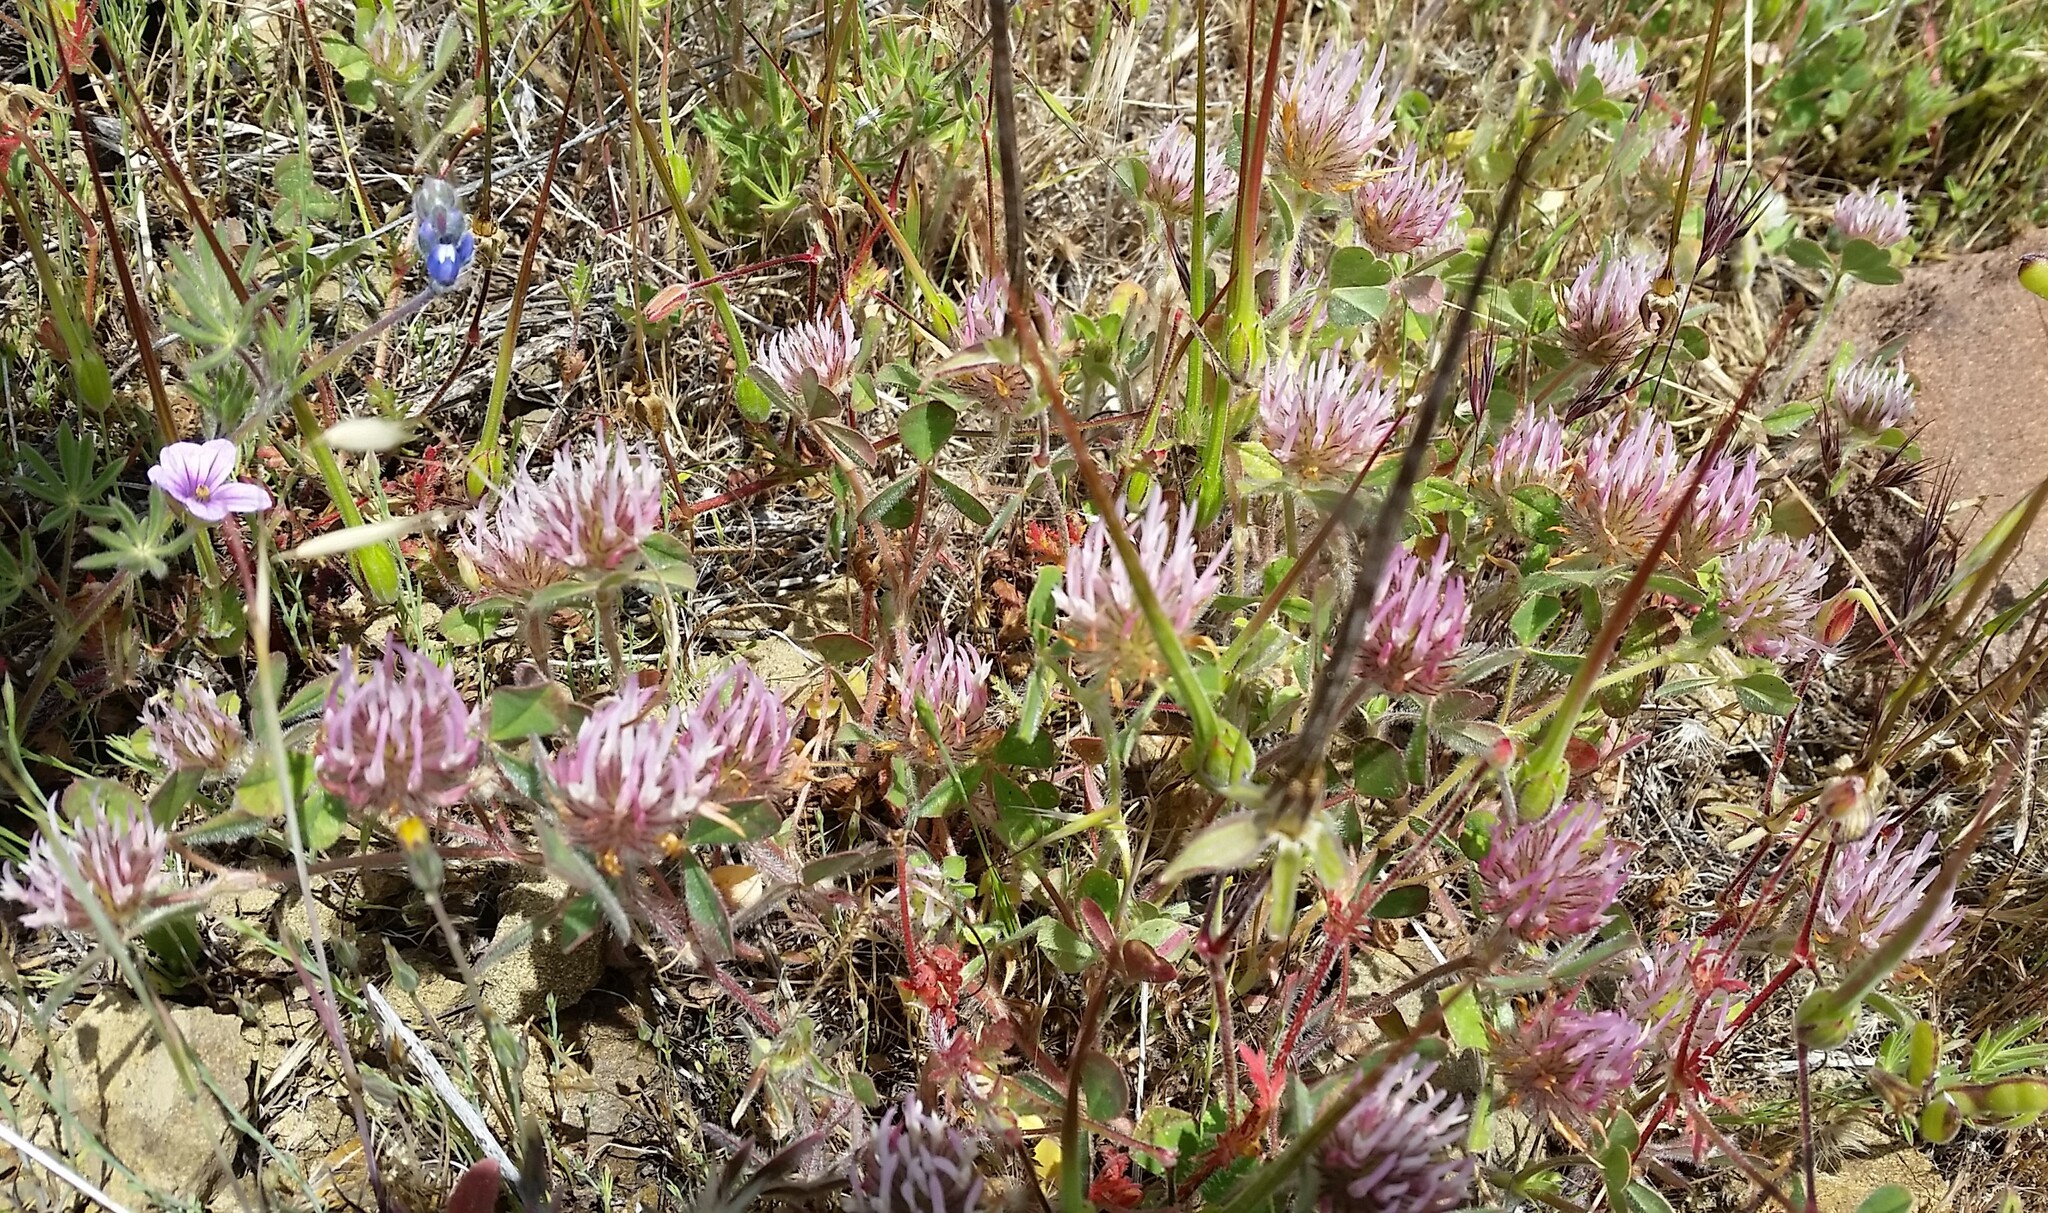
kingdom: Plantae
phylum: Tracheophyta
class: Magnoliopsida
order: Fabales
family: Fabaceae
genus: Trifolium
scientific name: Trifolium hirtum
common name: Rose clover
